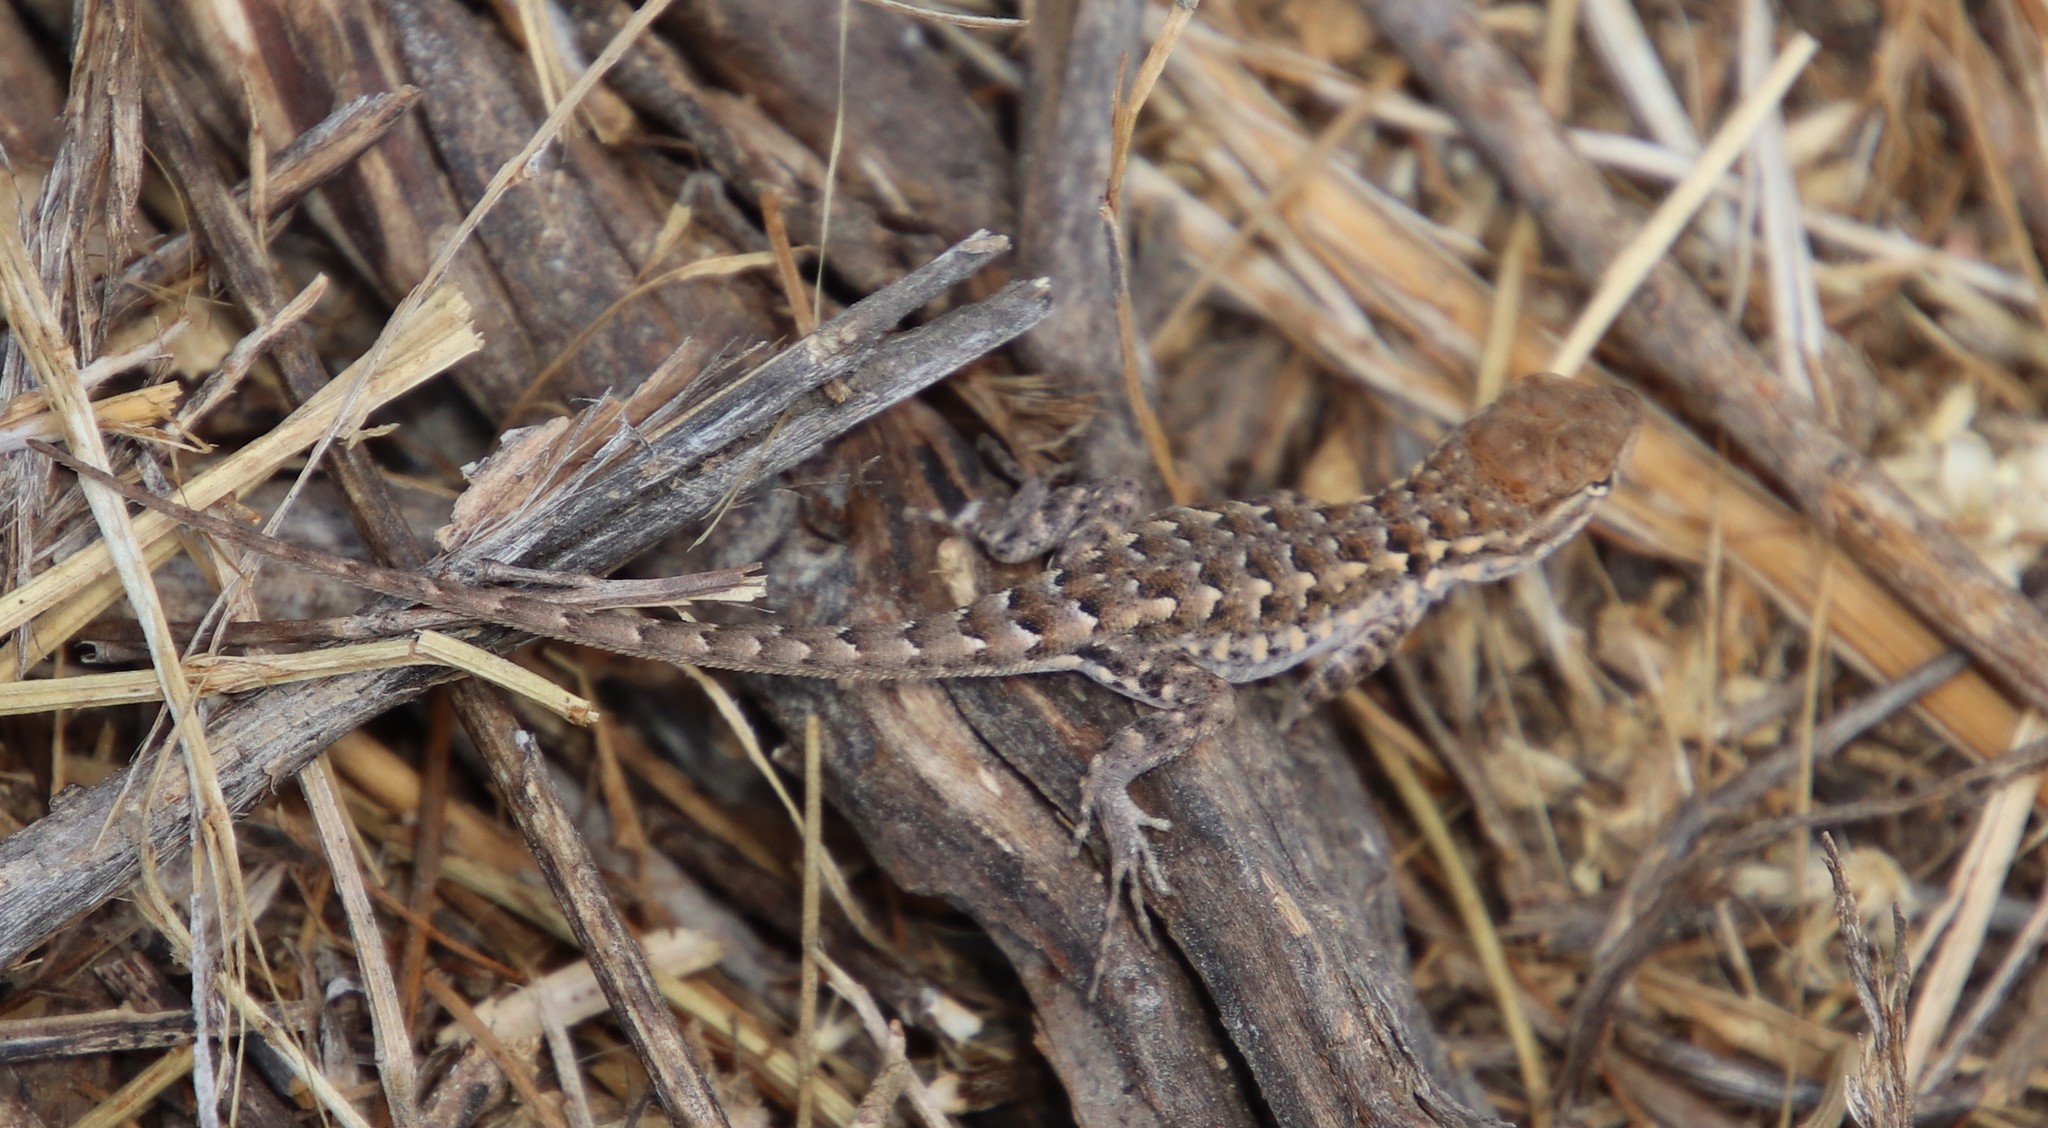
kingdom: Animalia
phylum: Chordata
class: Squamata
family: Phrynosomatidae
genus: Uta
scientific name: Uta stansburiana
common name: Side-blotched lizard
